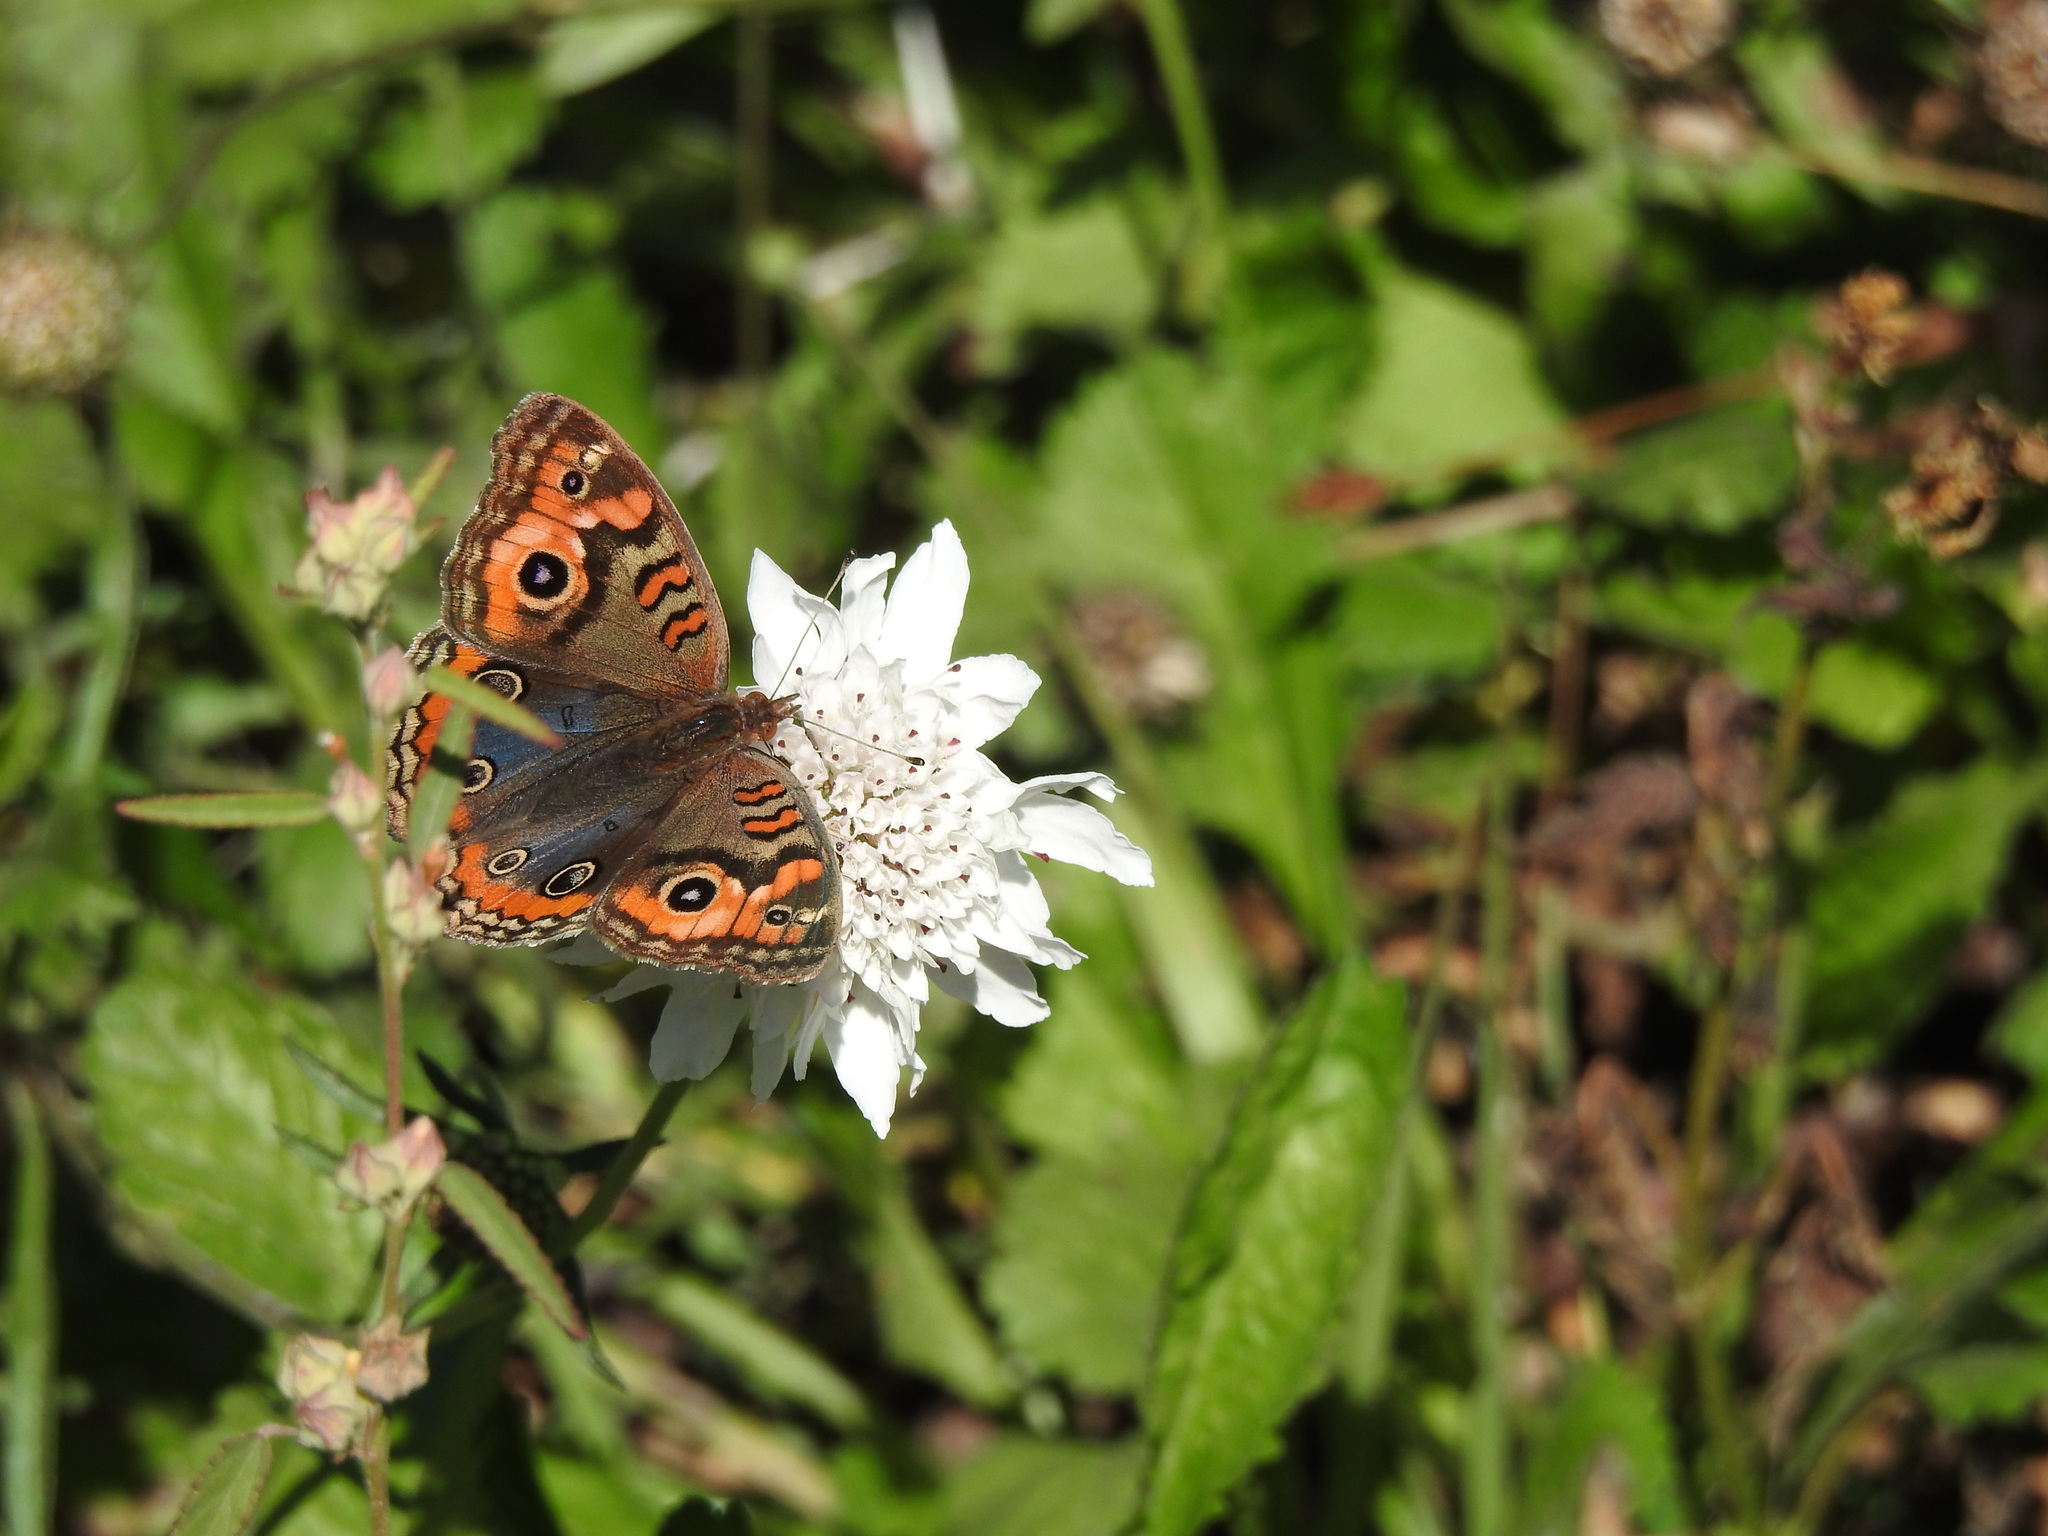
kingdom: Animalia
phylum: Arthropoda
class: Insecta
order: Lepidoptera
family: Nymphalidae
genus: Junonia
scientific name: Junonia lavinia
